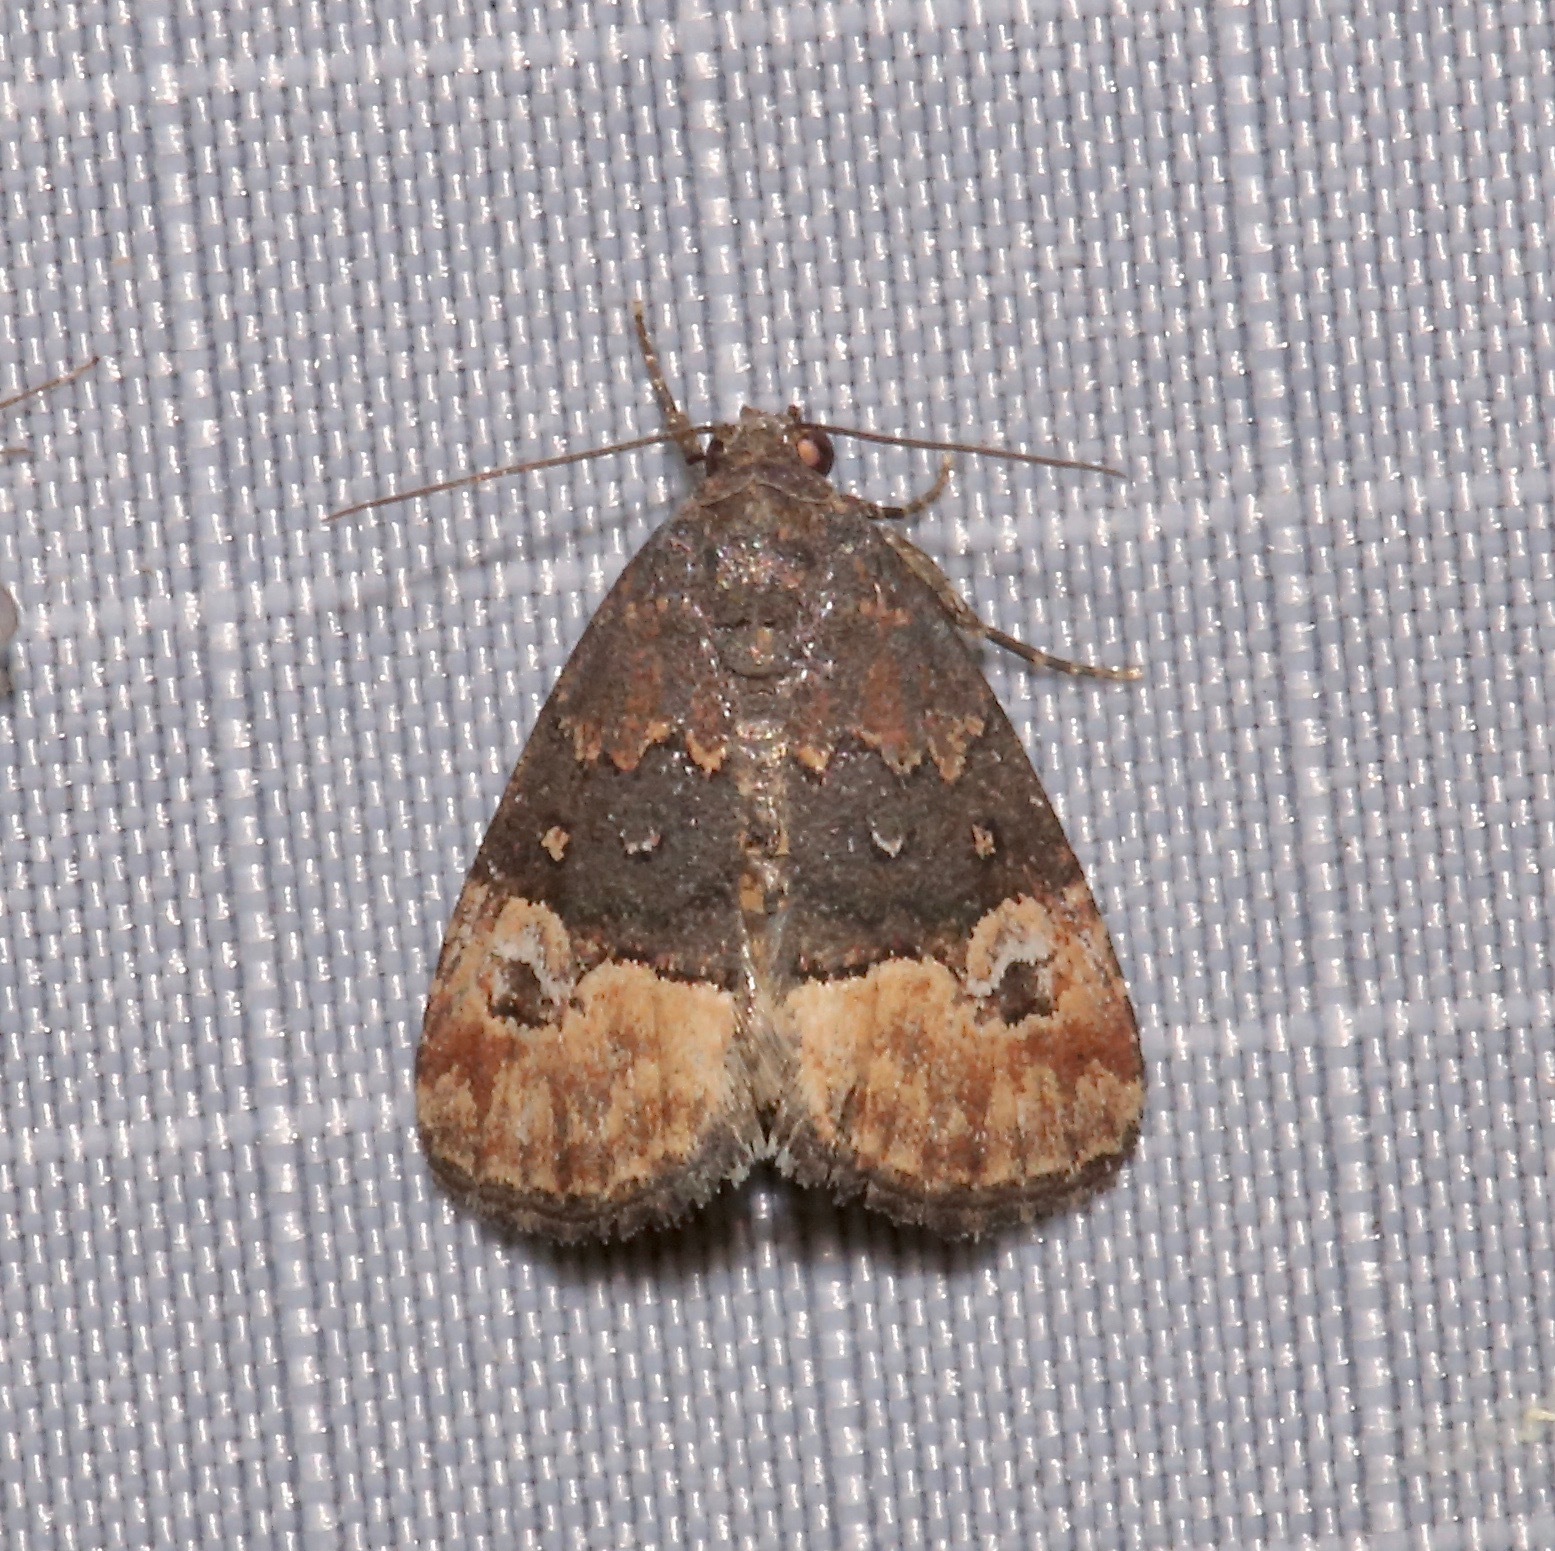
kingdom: Animalia
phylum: Arthropoda
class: Insecta
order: Lepidoptera
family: Noctuidae
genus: Ozarba
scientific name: Ozarba propera
